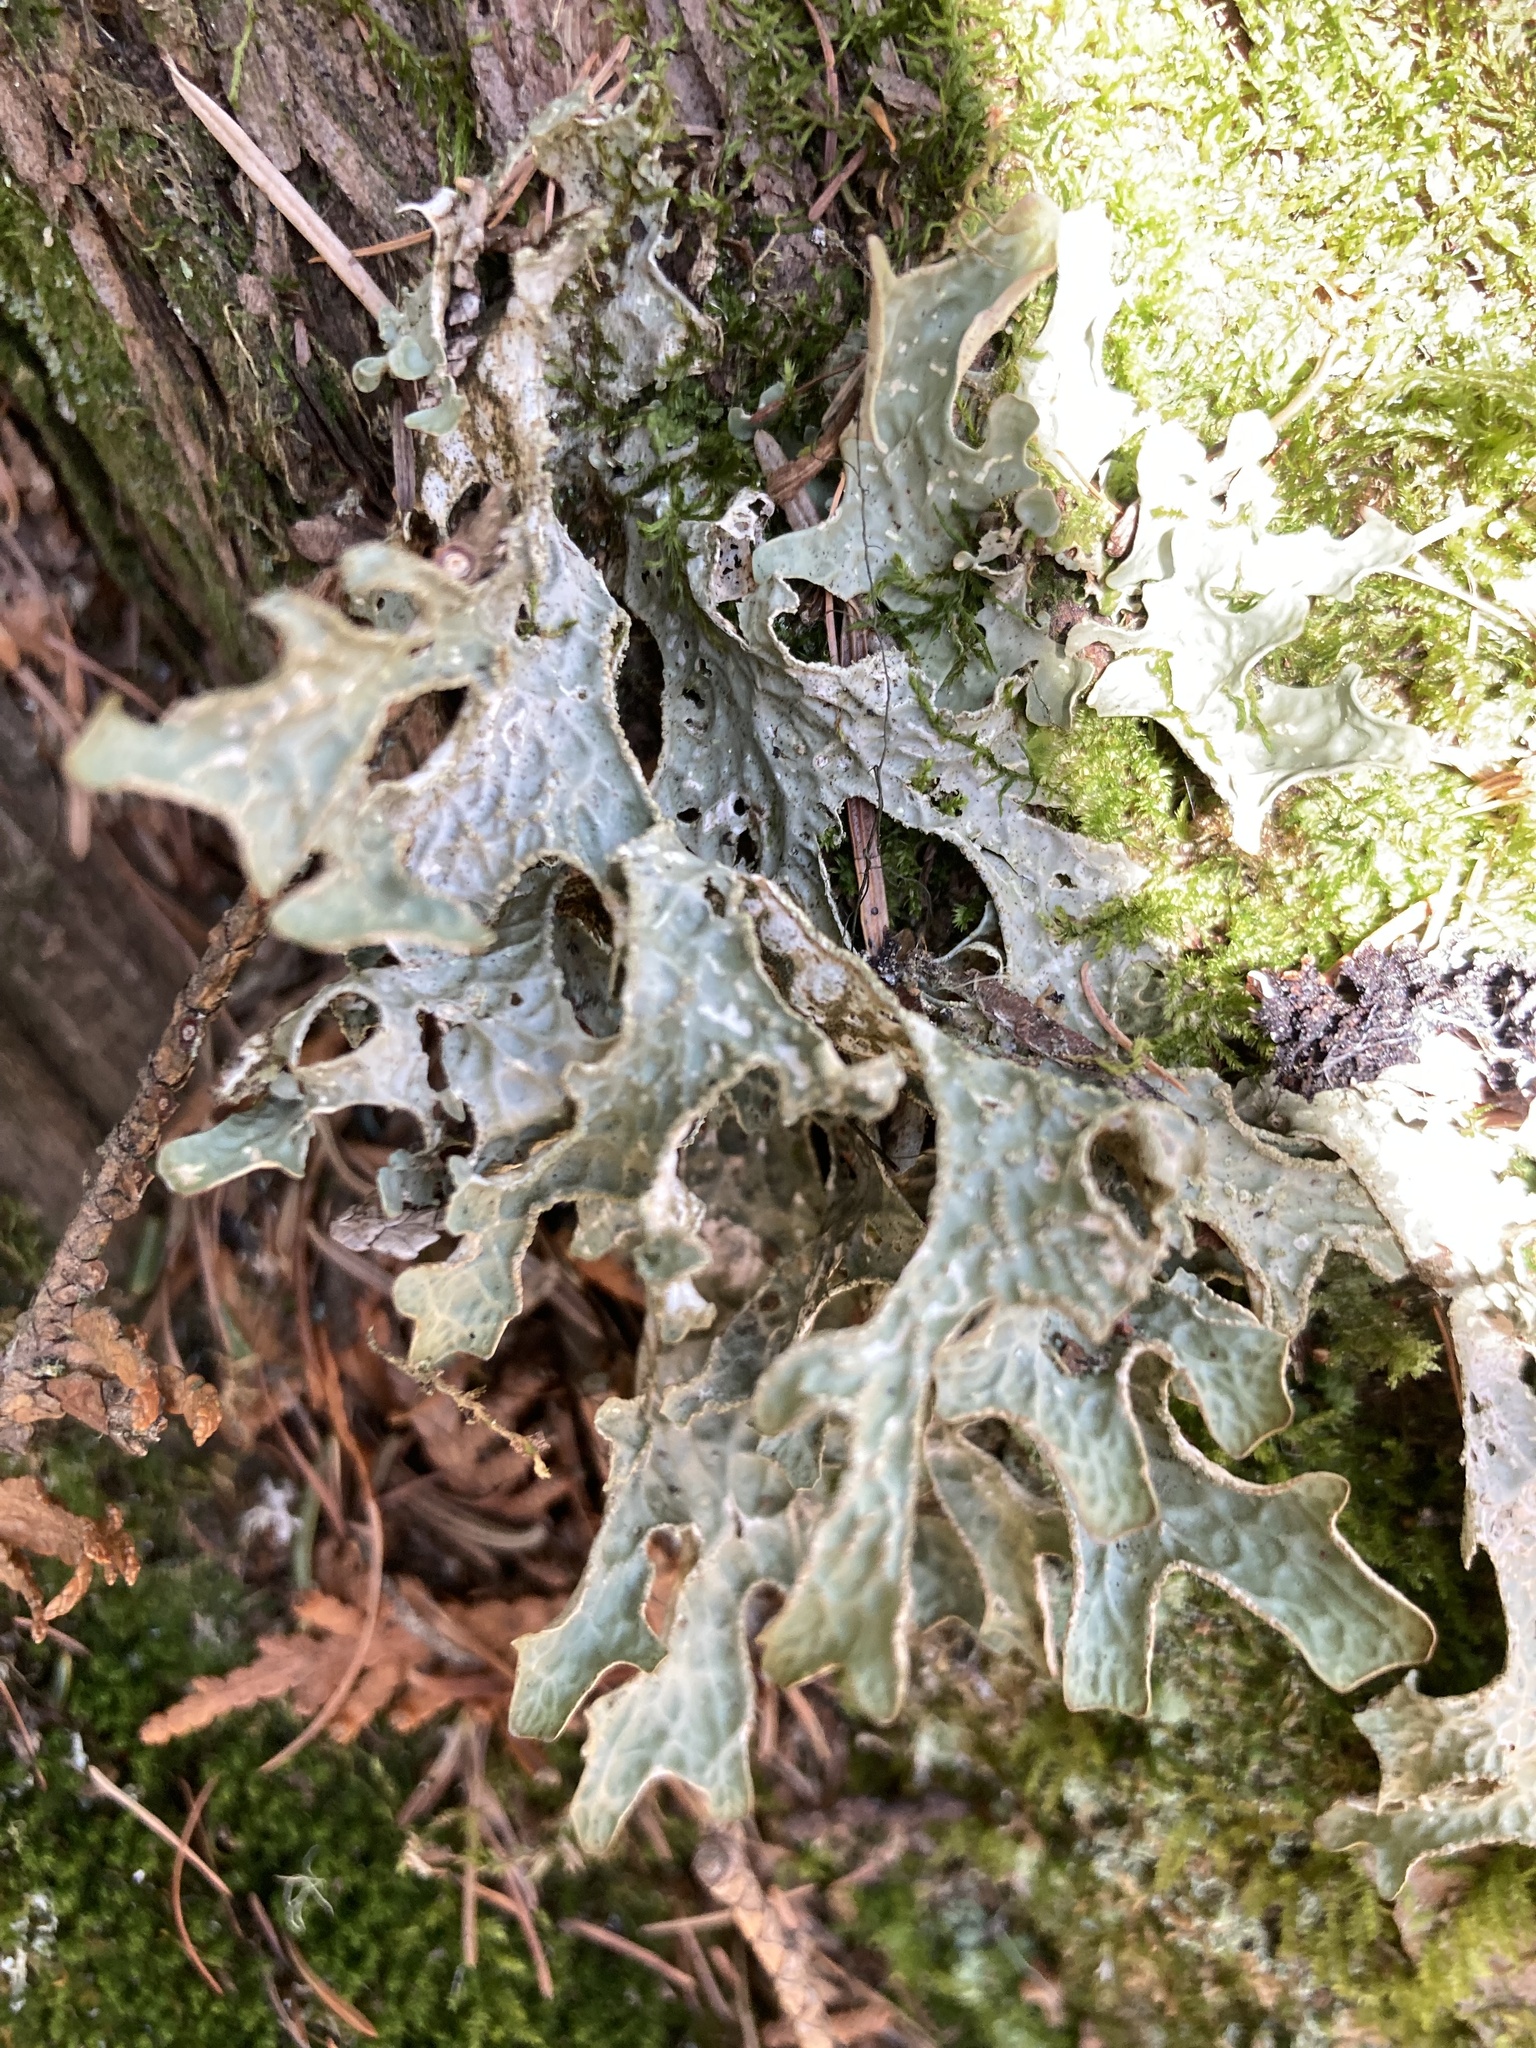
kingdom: Fungi
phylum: Ascomycota
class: Lecanoromycetes
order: Peltigerales
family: Lobariaceae
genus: Lobaria
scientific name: Lobaria pulmonaria
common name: Lungwort
